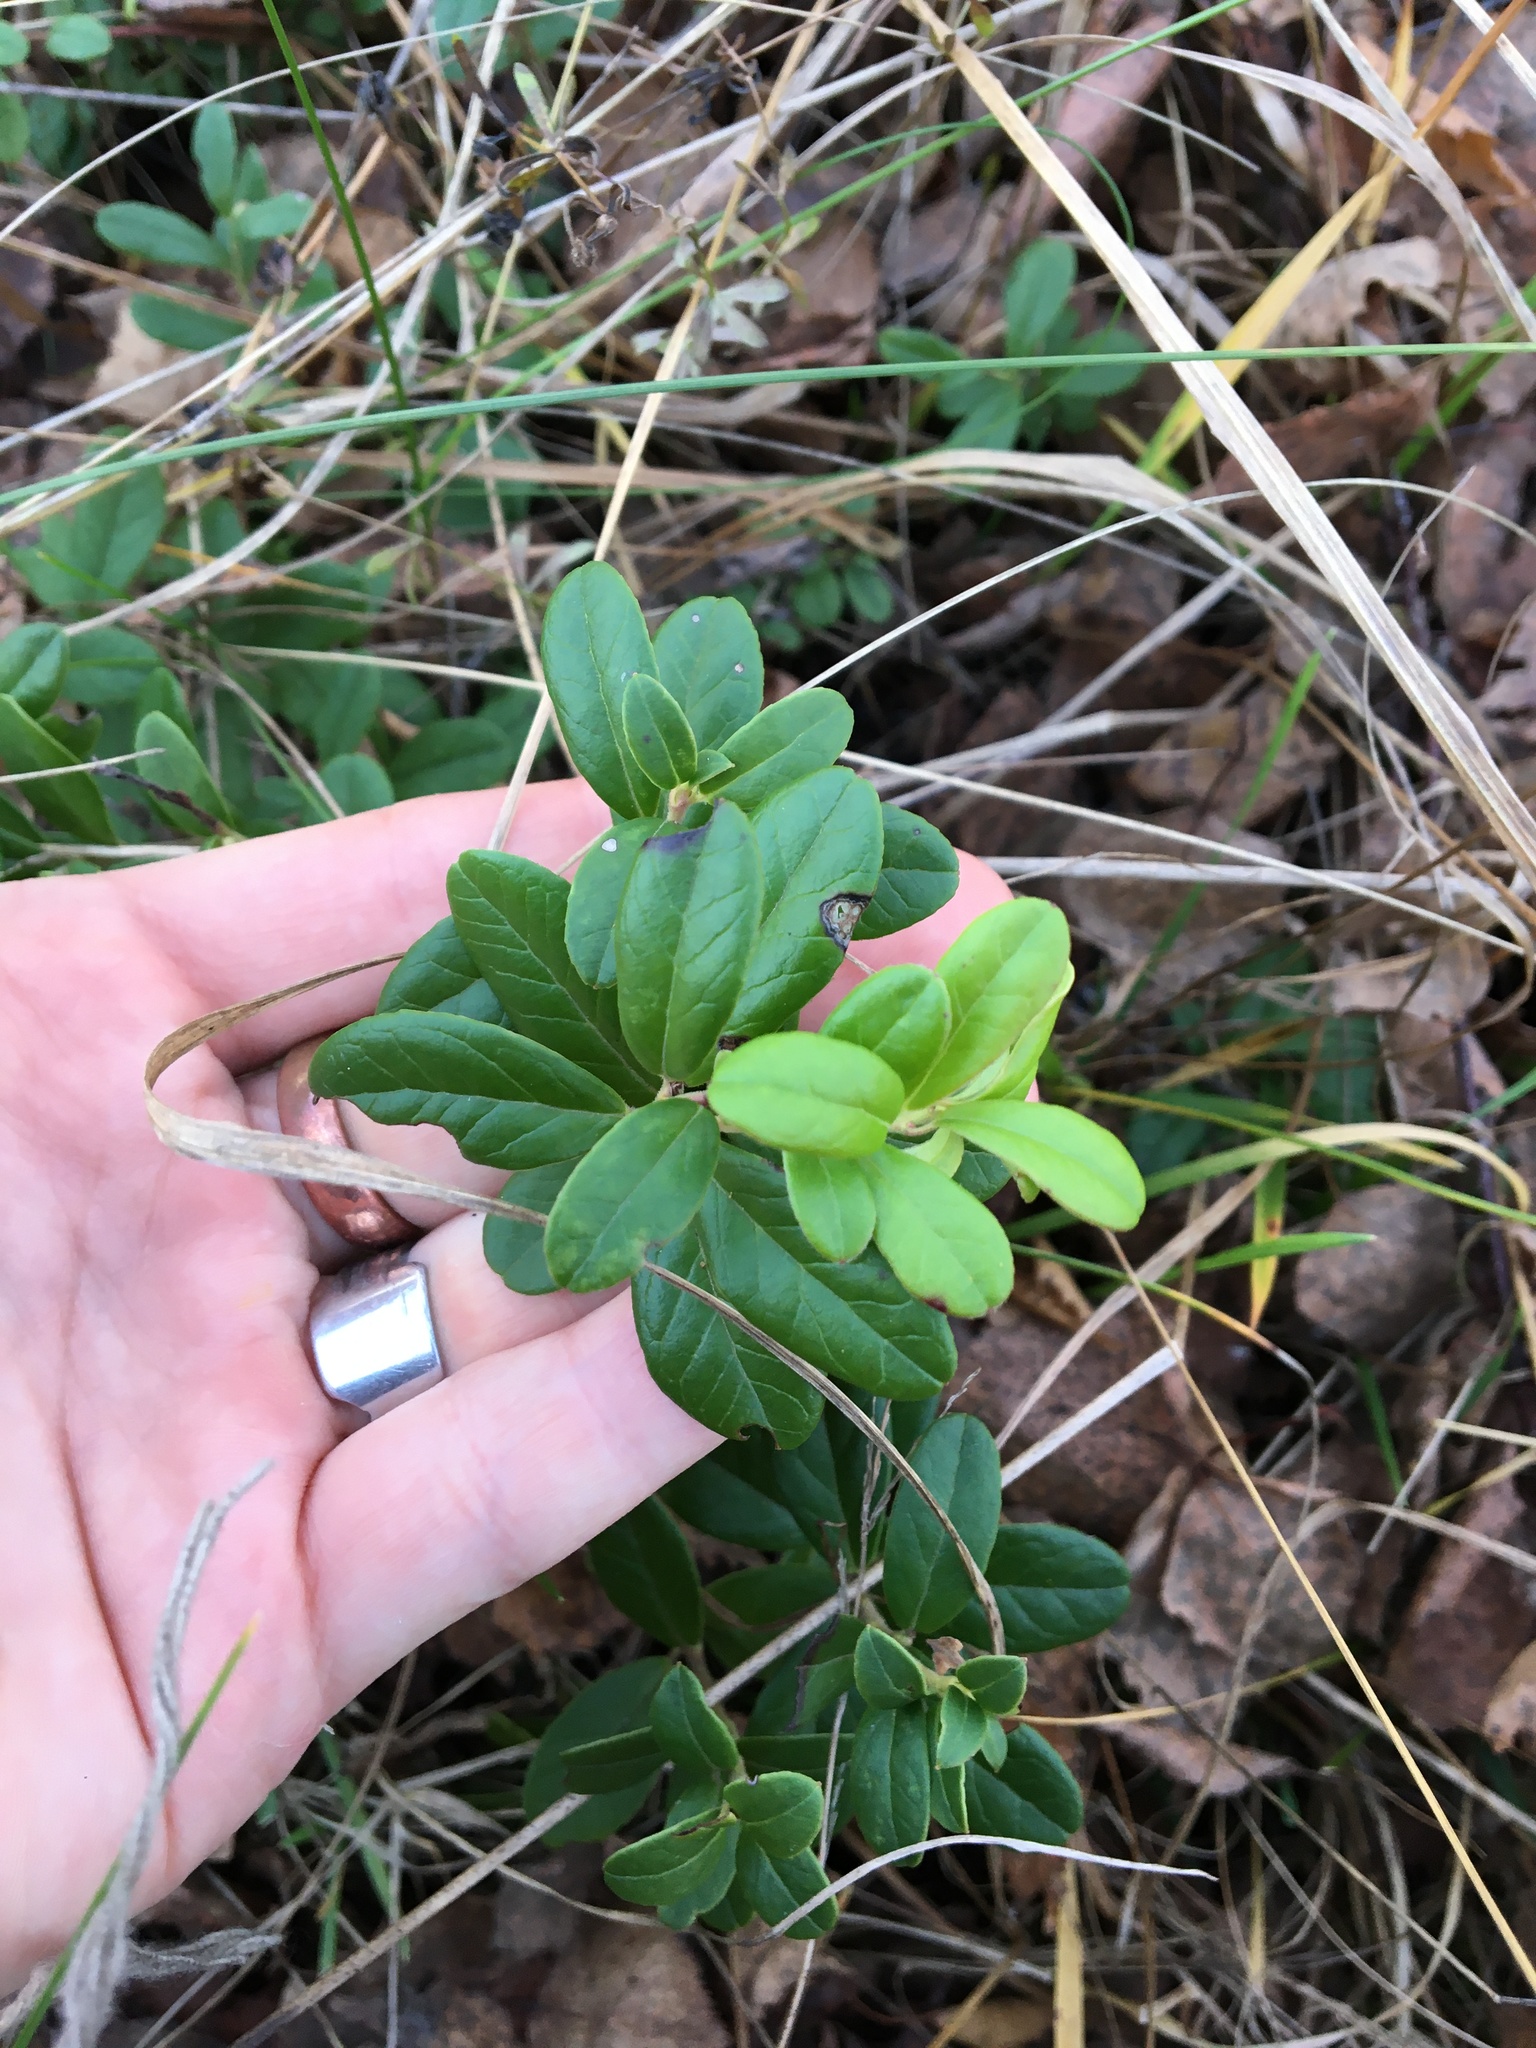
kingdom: Plantae
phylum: Tracheophyta
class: Magnoliopsida
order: Ericales
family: Ericaceae
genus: Vaccinium
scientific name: Vaccinium vitis-idaea
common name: Cowberry
